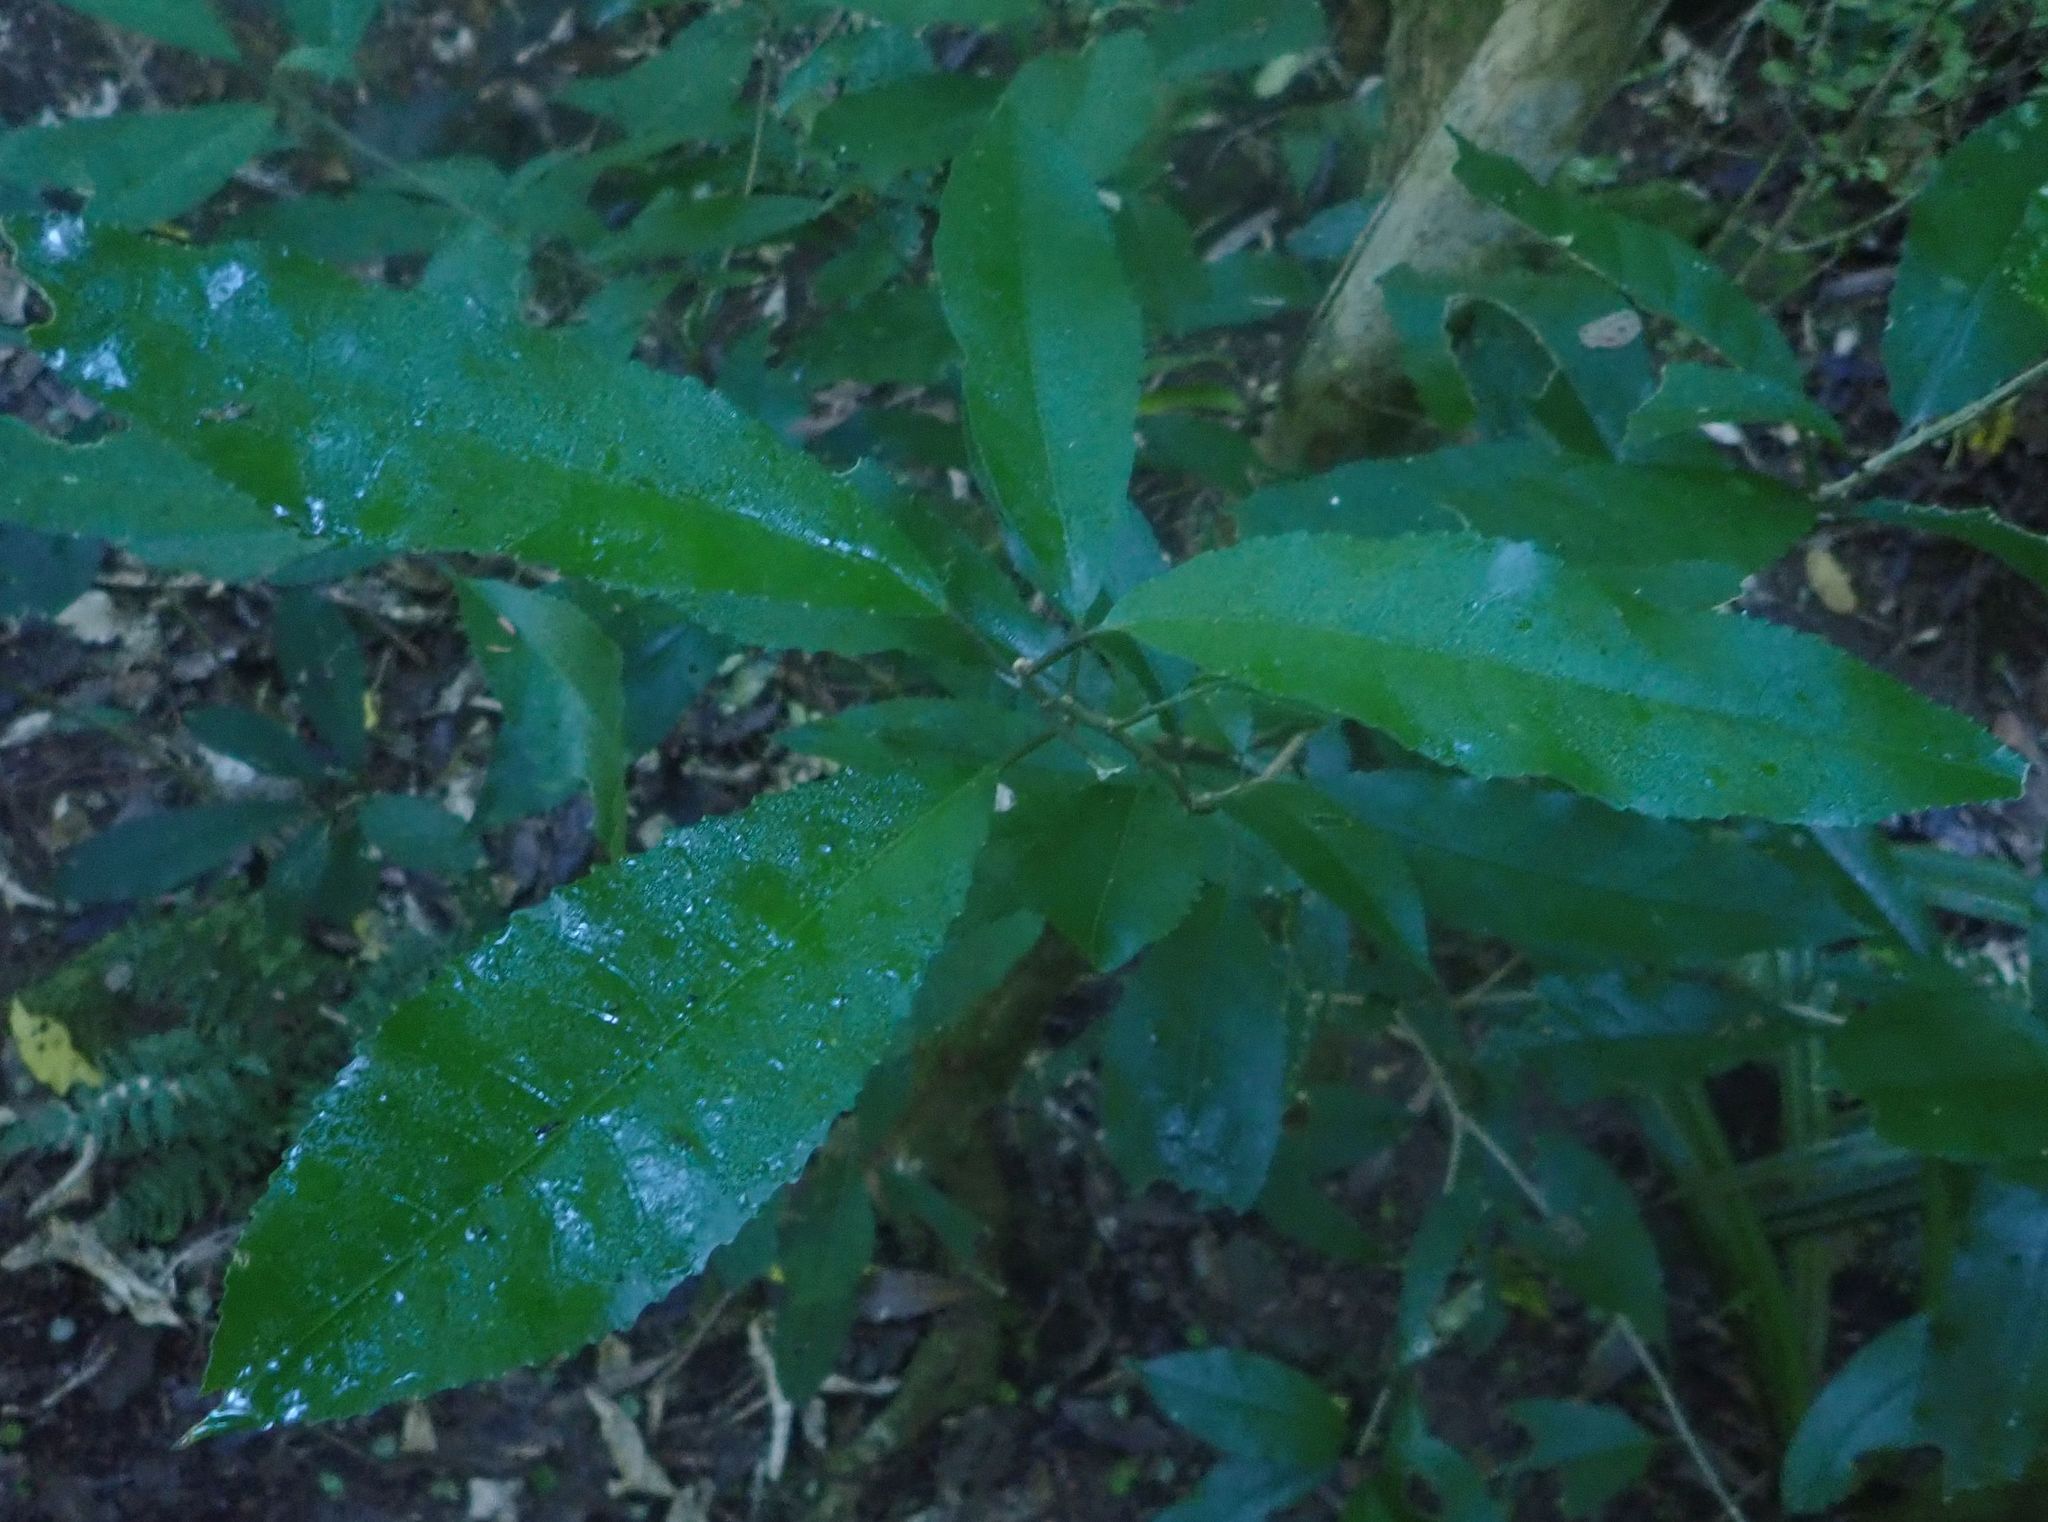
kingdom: Plantae
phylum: Tracheophyta
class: Magnoliopsida
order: Malpighiales
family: Violaceae
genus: Melicytus
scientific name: Melicytus ramiflorus
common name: Mahoe
